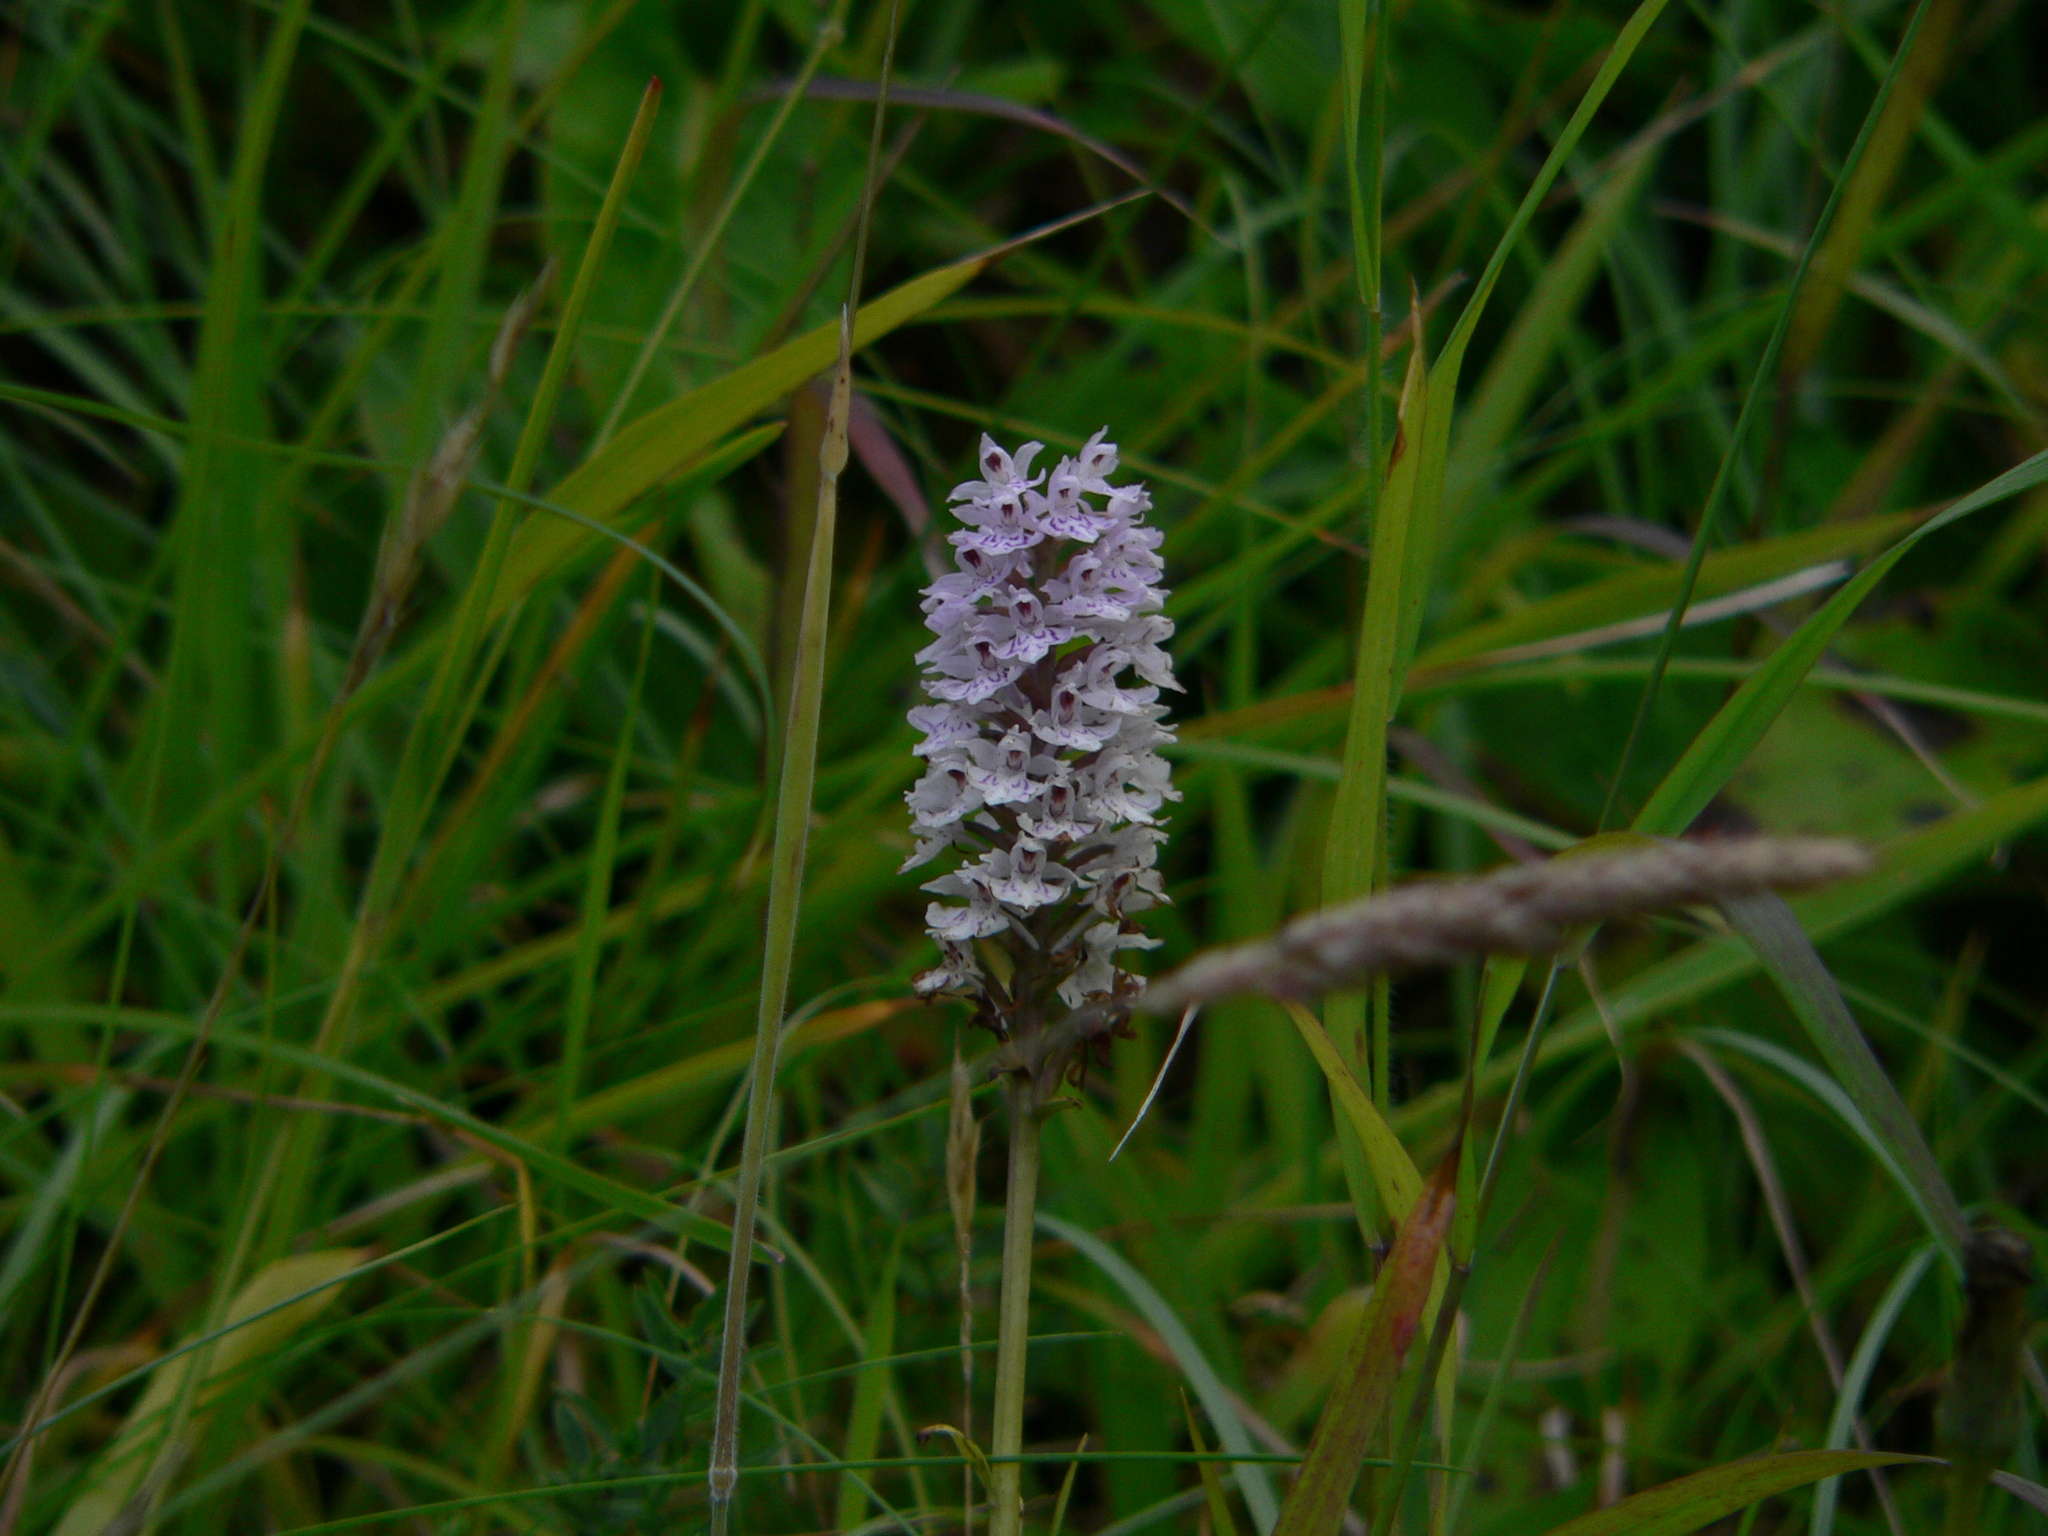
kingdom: Plantae
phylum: Tracheophyta
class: Liliopsida
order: Asparagales
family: Orchidaceae
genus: Dactylorhiza
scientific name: Dactylorhiza maculata
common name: Heath spotted-orchid
